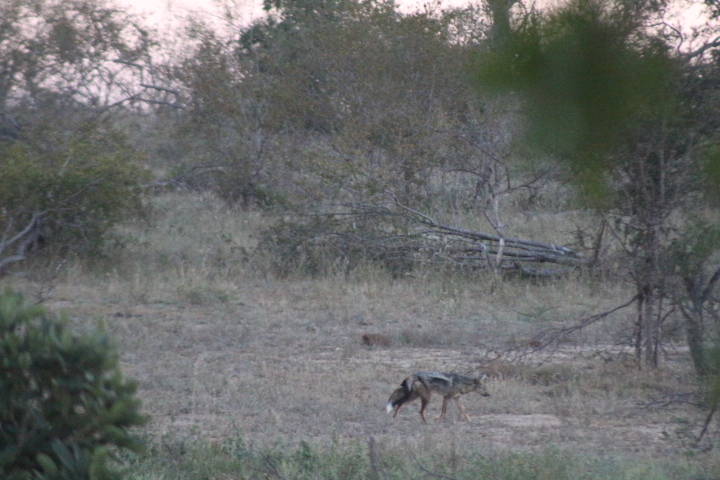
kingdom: Animalia
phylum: Chordata
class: Mammalia
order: Carnivora
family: Canidae
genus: Lupulella
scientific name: Lupulella
